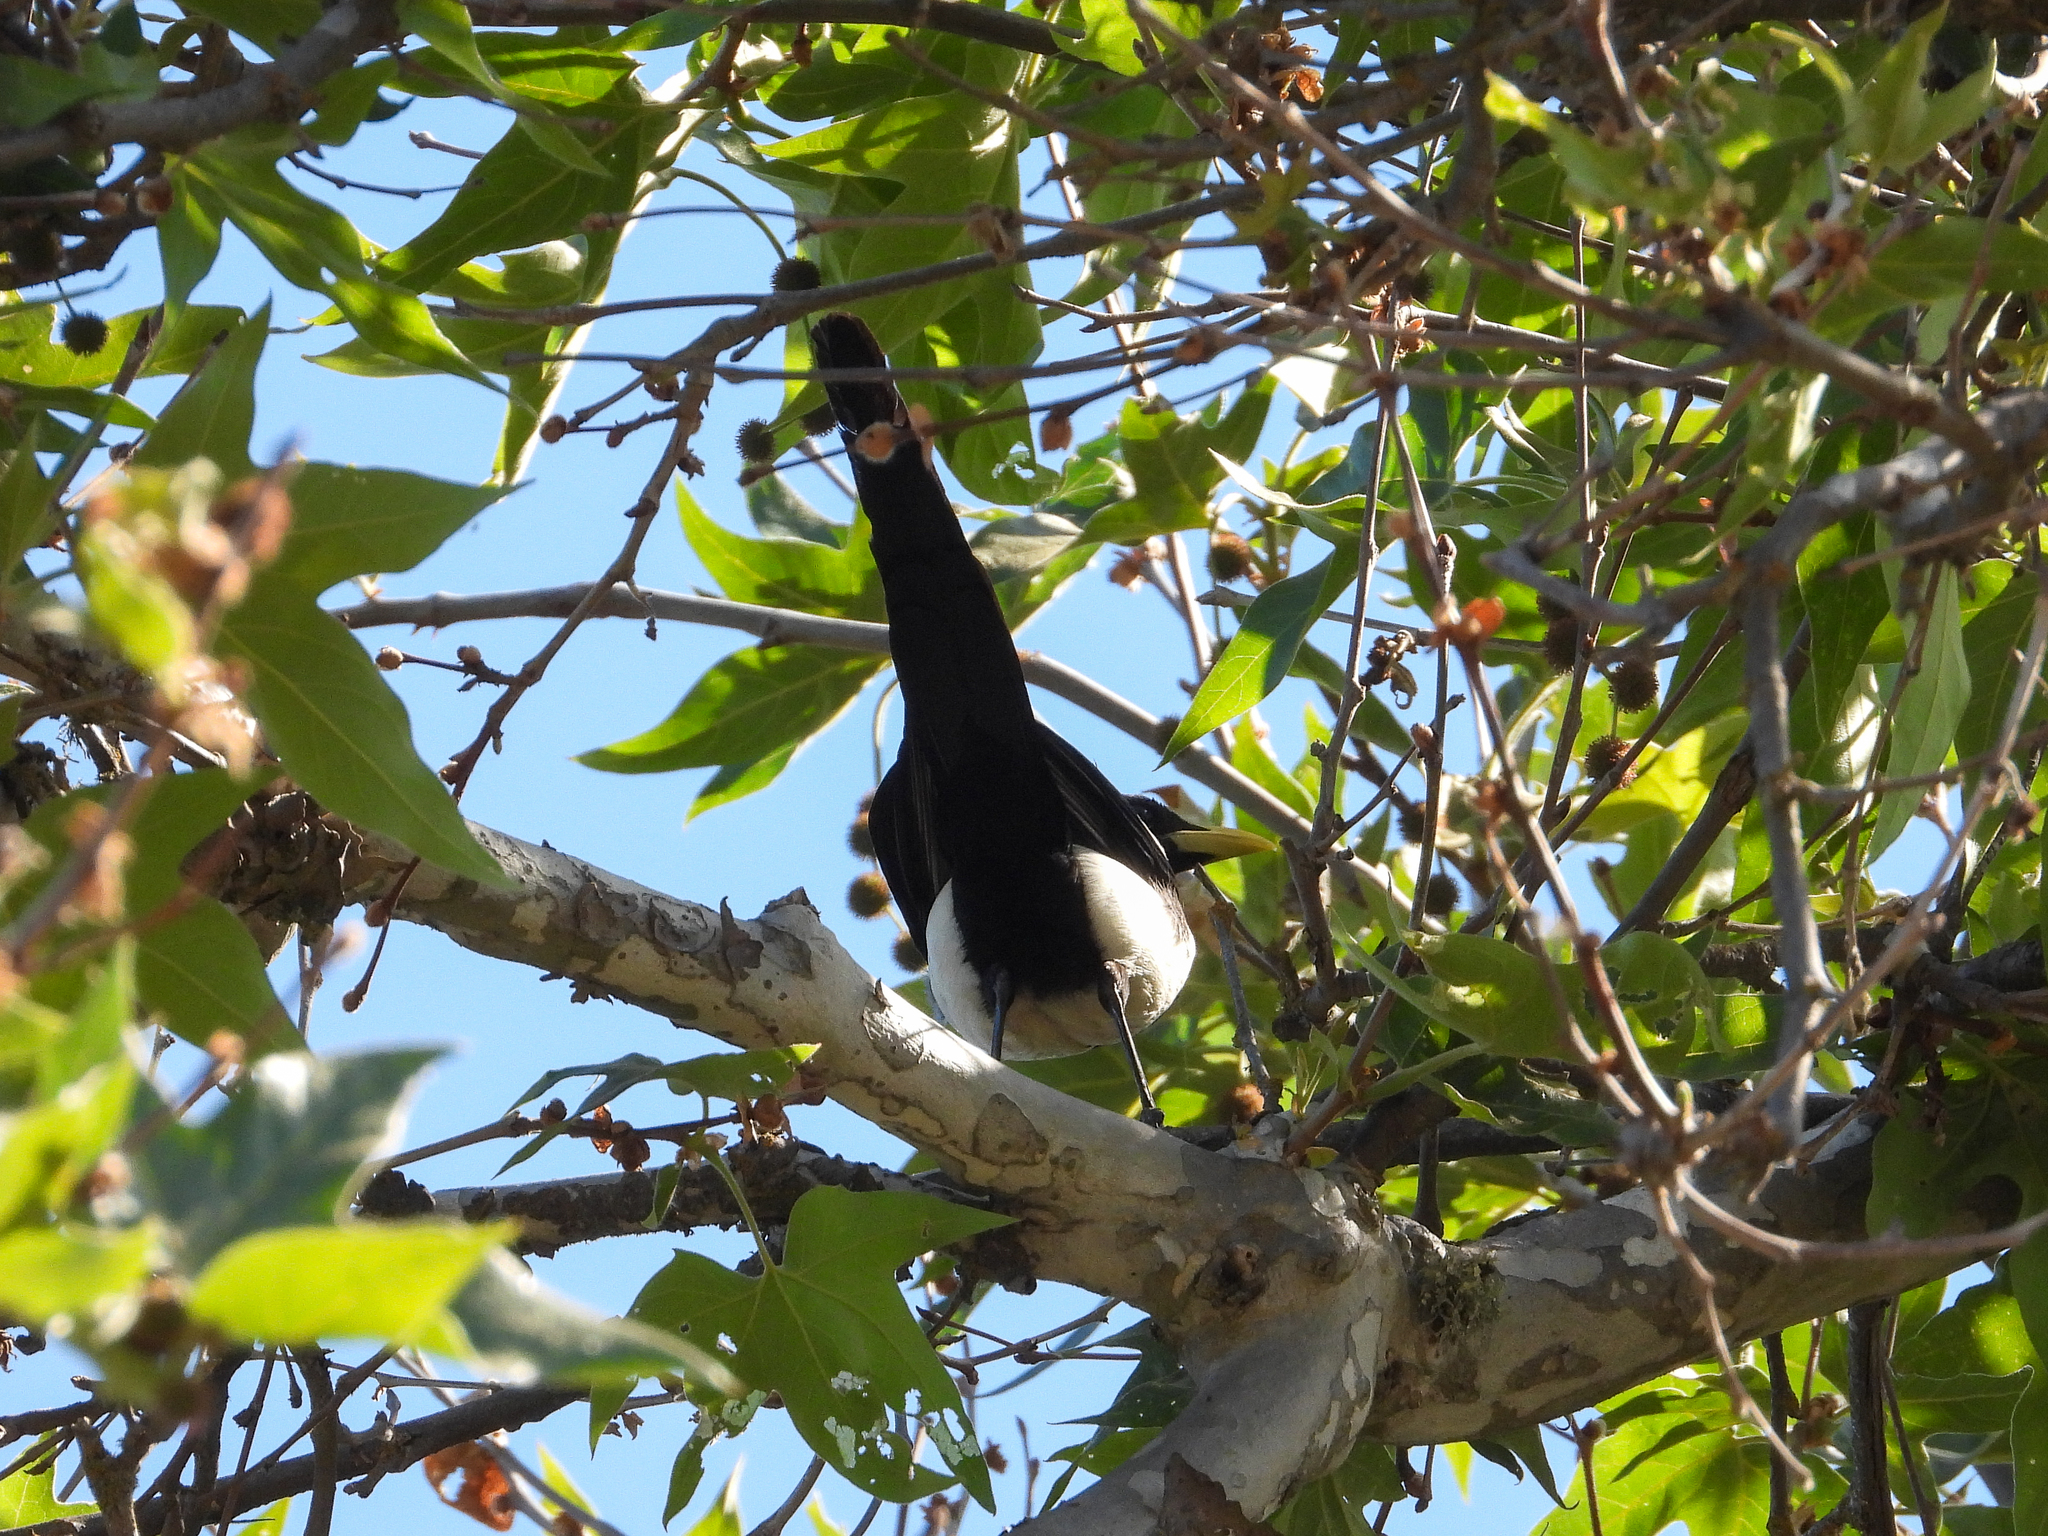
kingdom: Animalia
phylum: Chordata
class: Aves
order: Passeriformes
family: Corvidae
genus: Pica
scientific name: Pica nuttalli
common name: Yellow-billed magpie
